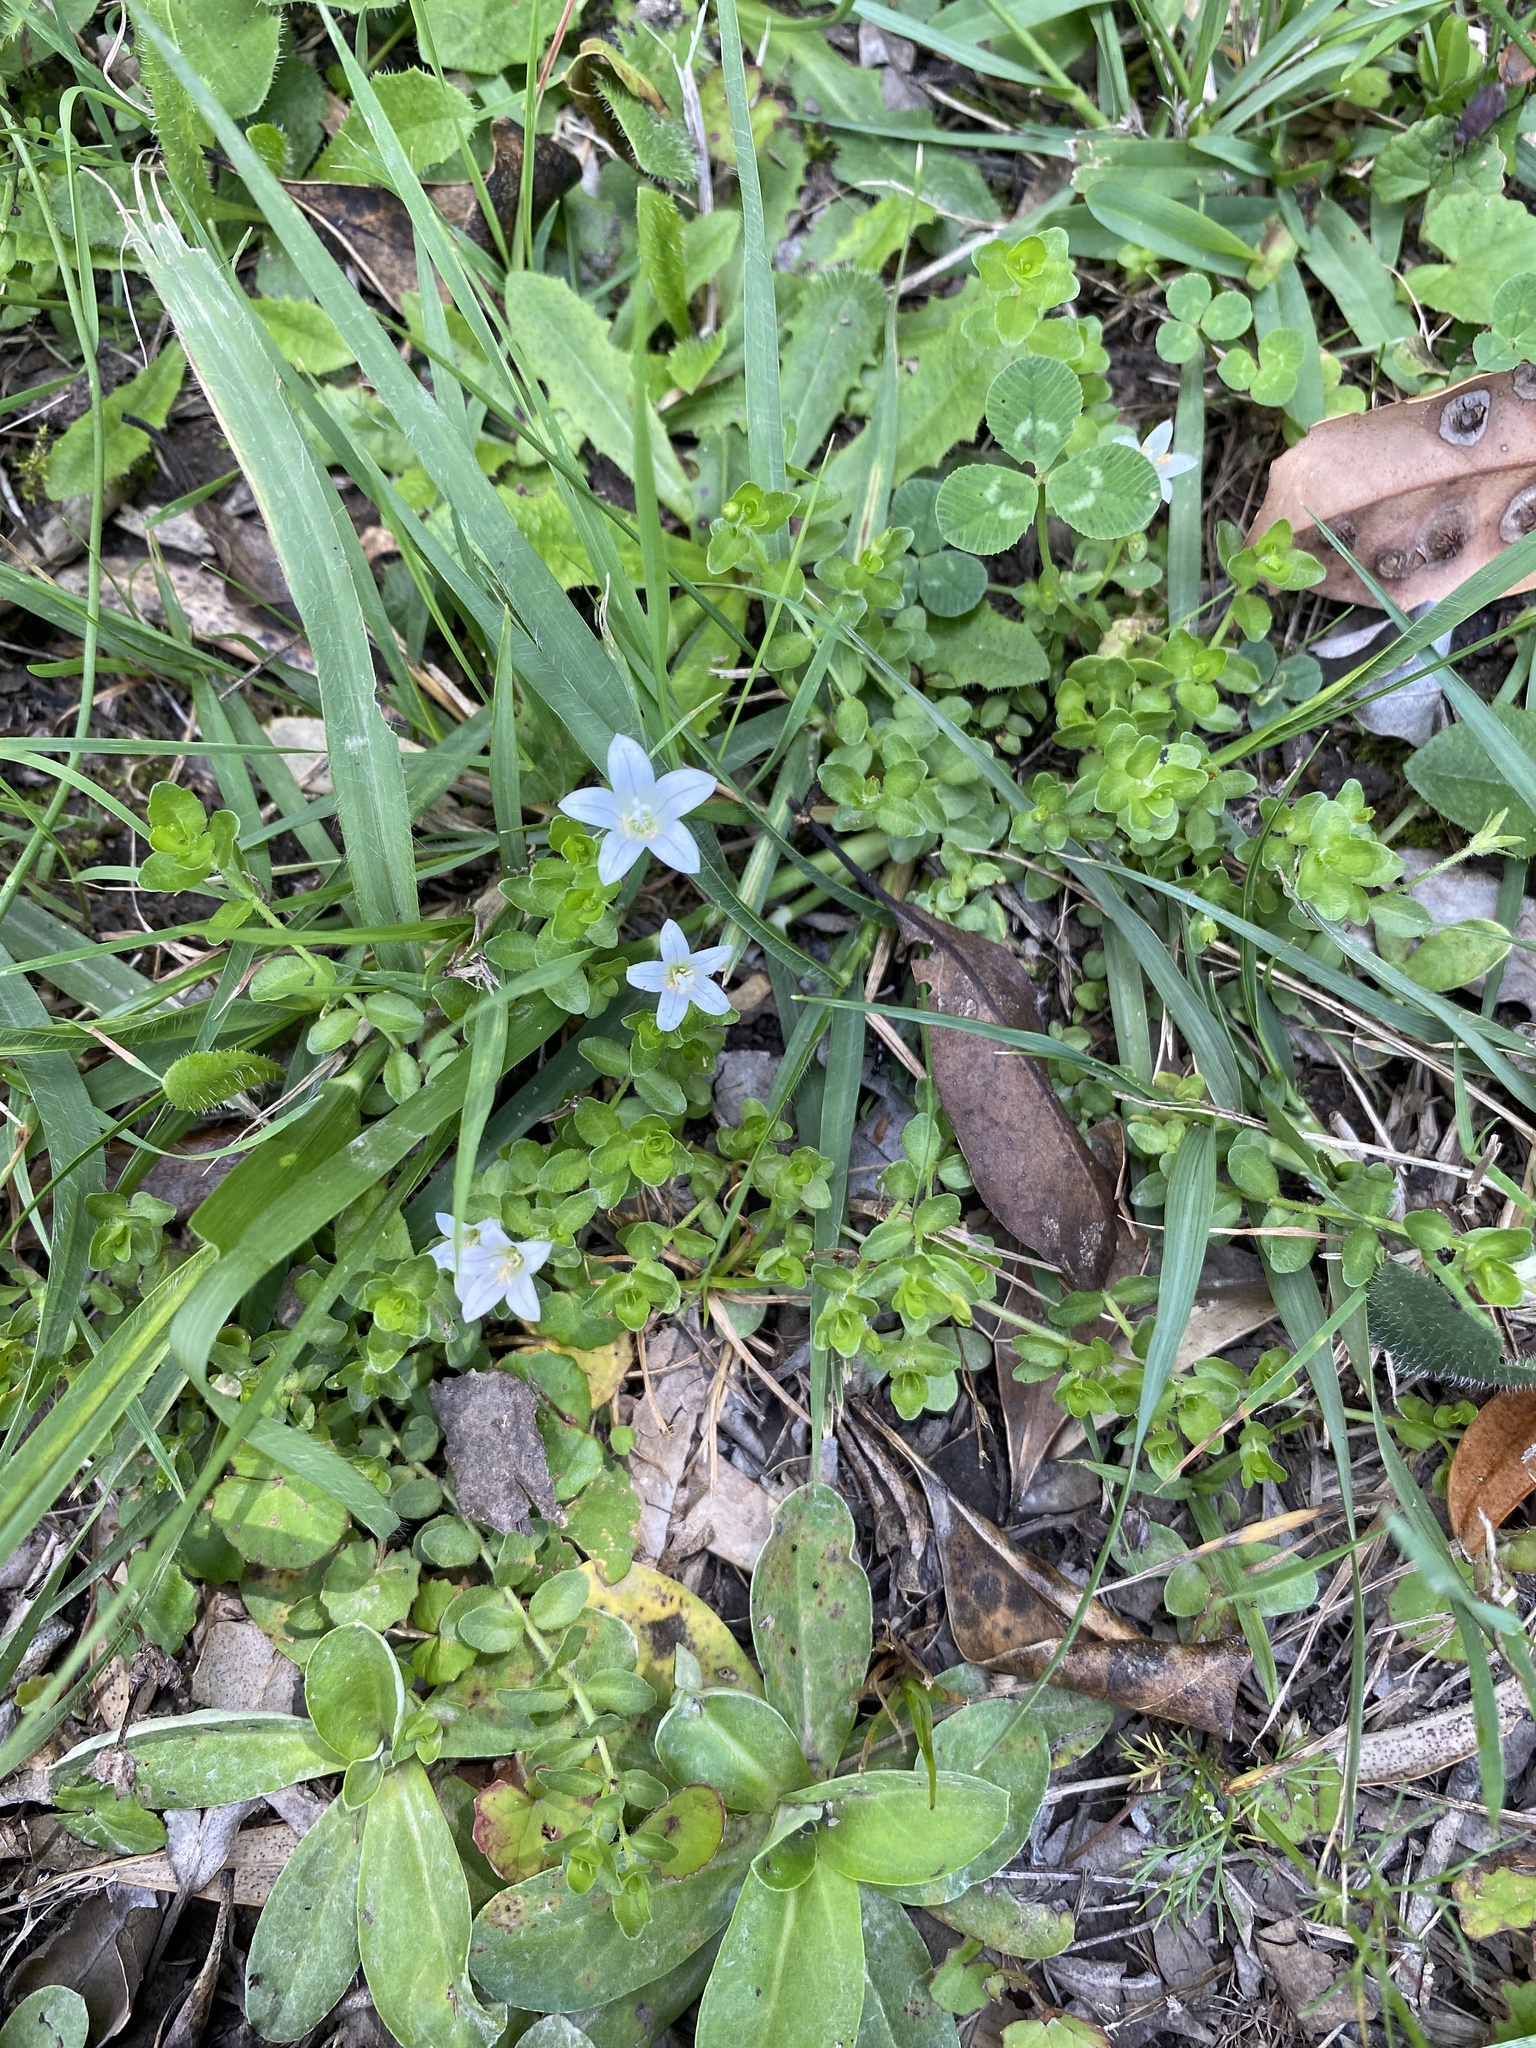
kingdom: Plantae
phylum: Tracheophyta
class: Magnoliopsida
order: Asterales
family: Campanulaceae
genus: Wahlenbergia
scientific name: Wahlenbergia procumbens
